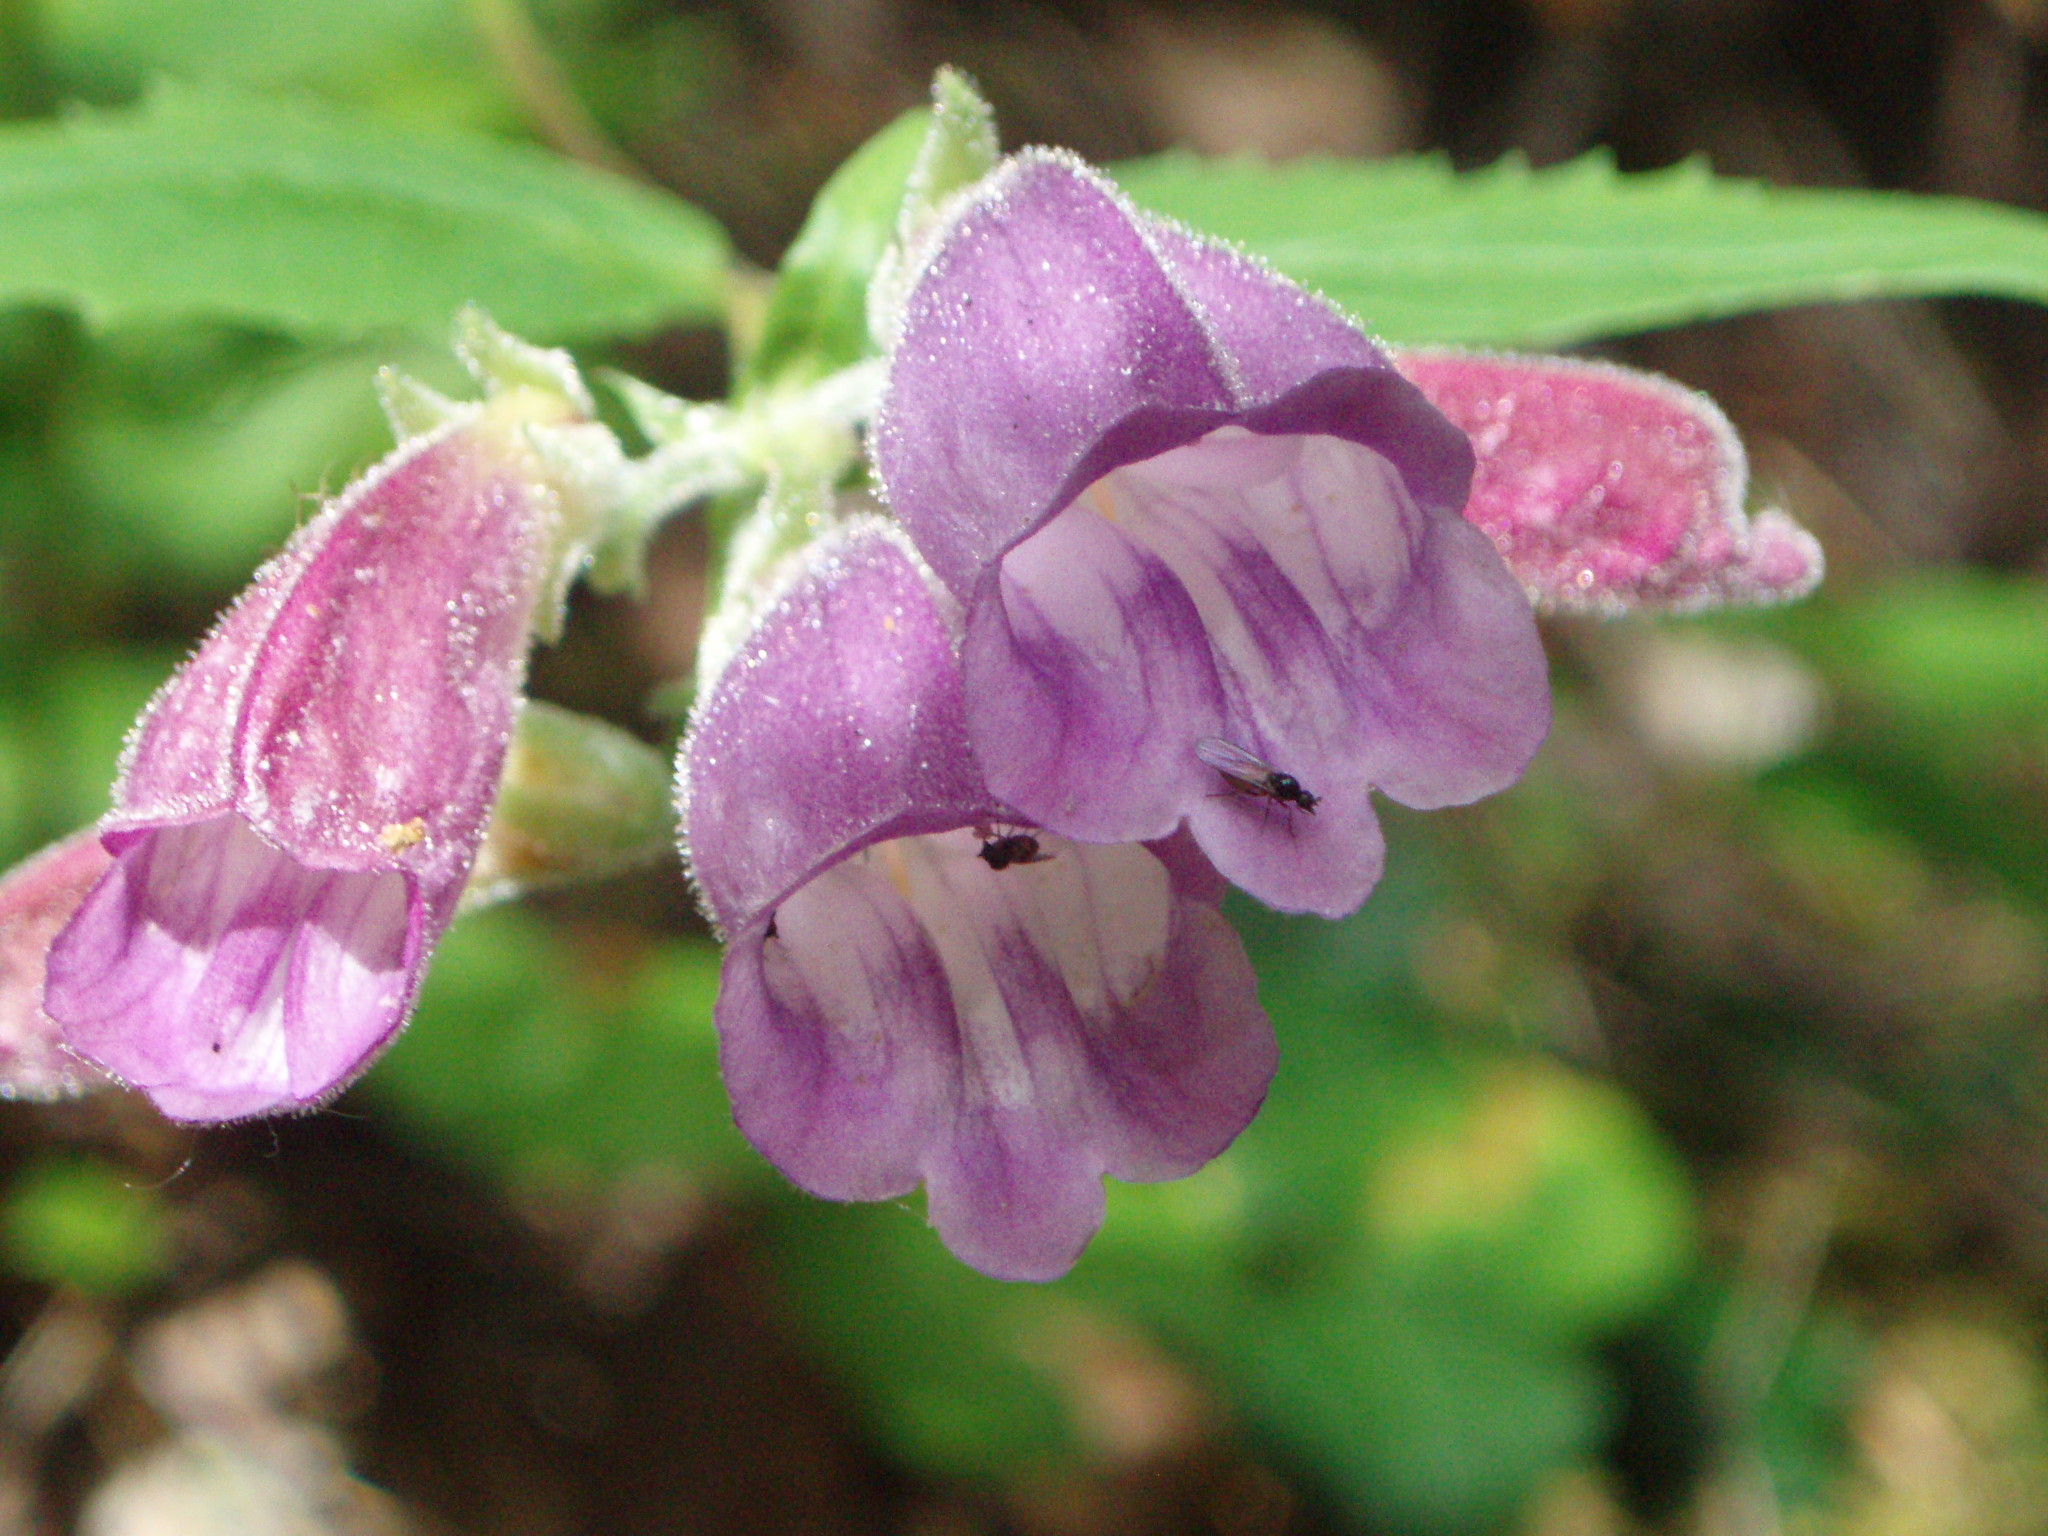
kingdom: Plantae
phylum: Tracheophyta
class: Magnoliopsida
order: Lamiales
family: Plantaginaceae
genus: Nothochelone
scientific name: Nothochelone nemorosa
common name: Woodland beardtongue
